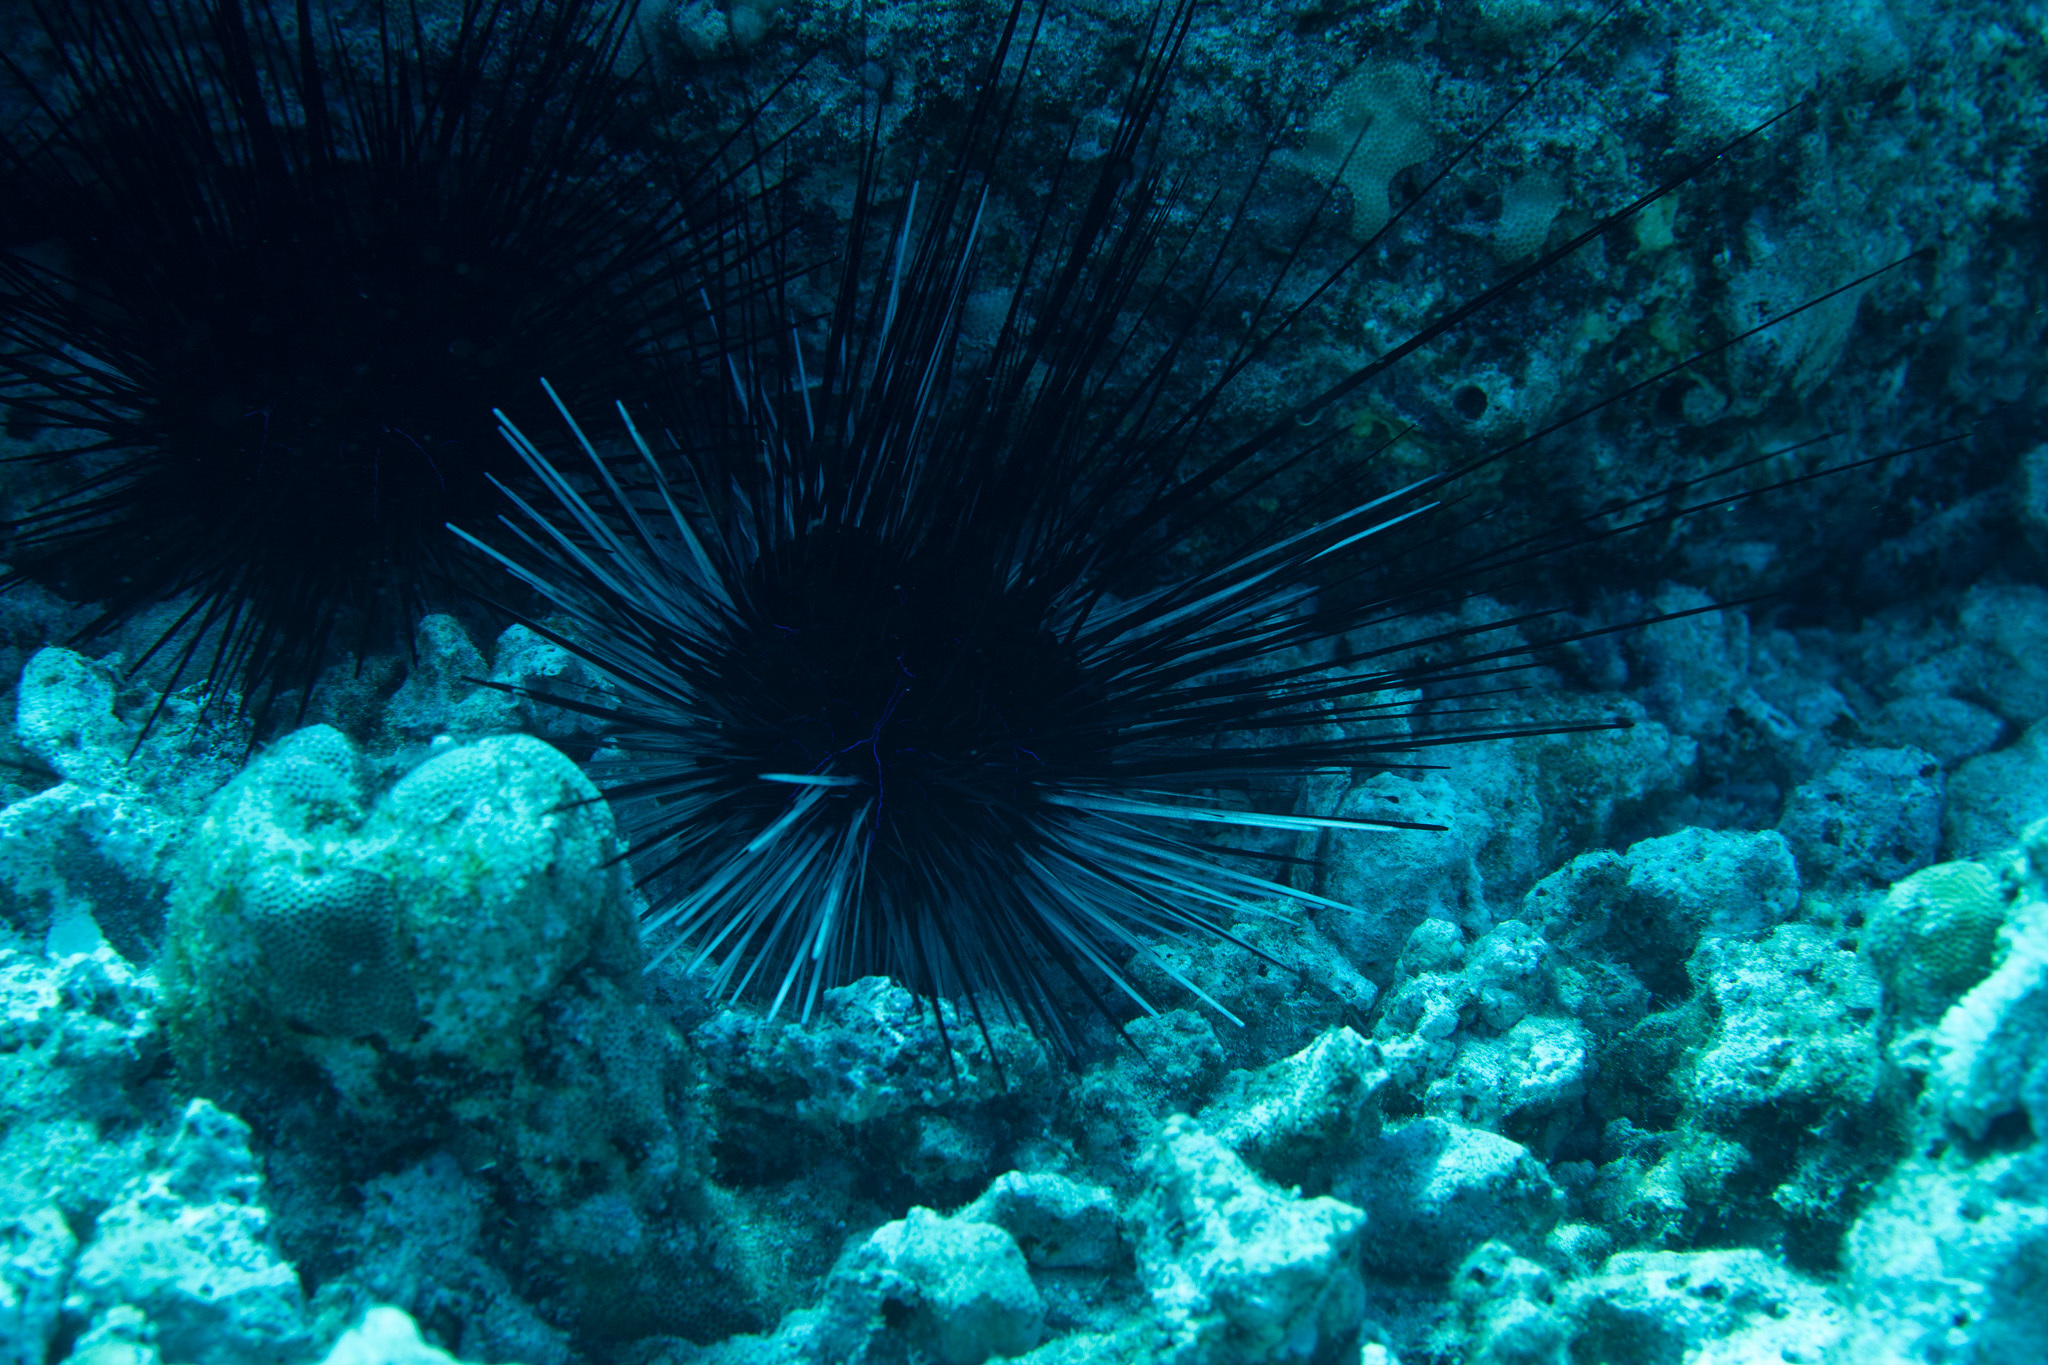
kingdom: Animalia
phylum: Echinodermata
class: Echinoidea
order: Diadematoida
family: Diadematidae
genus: Diadema
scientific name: Diadema savignyi
